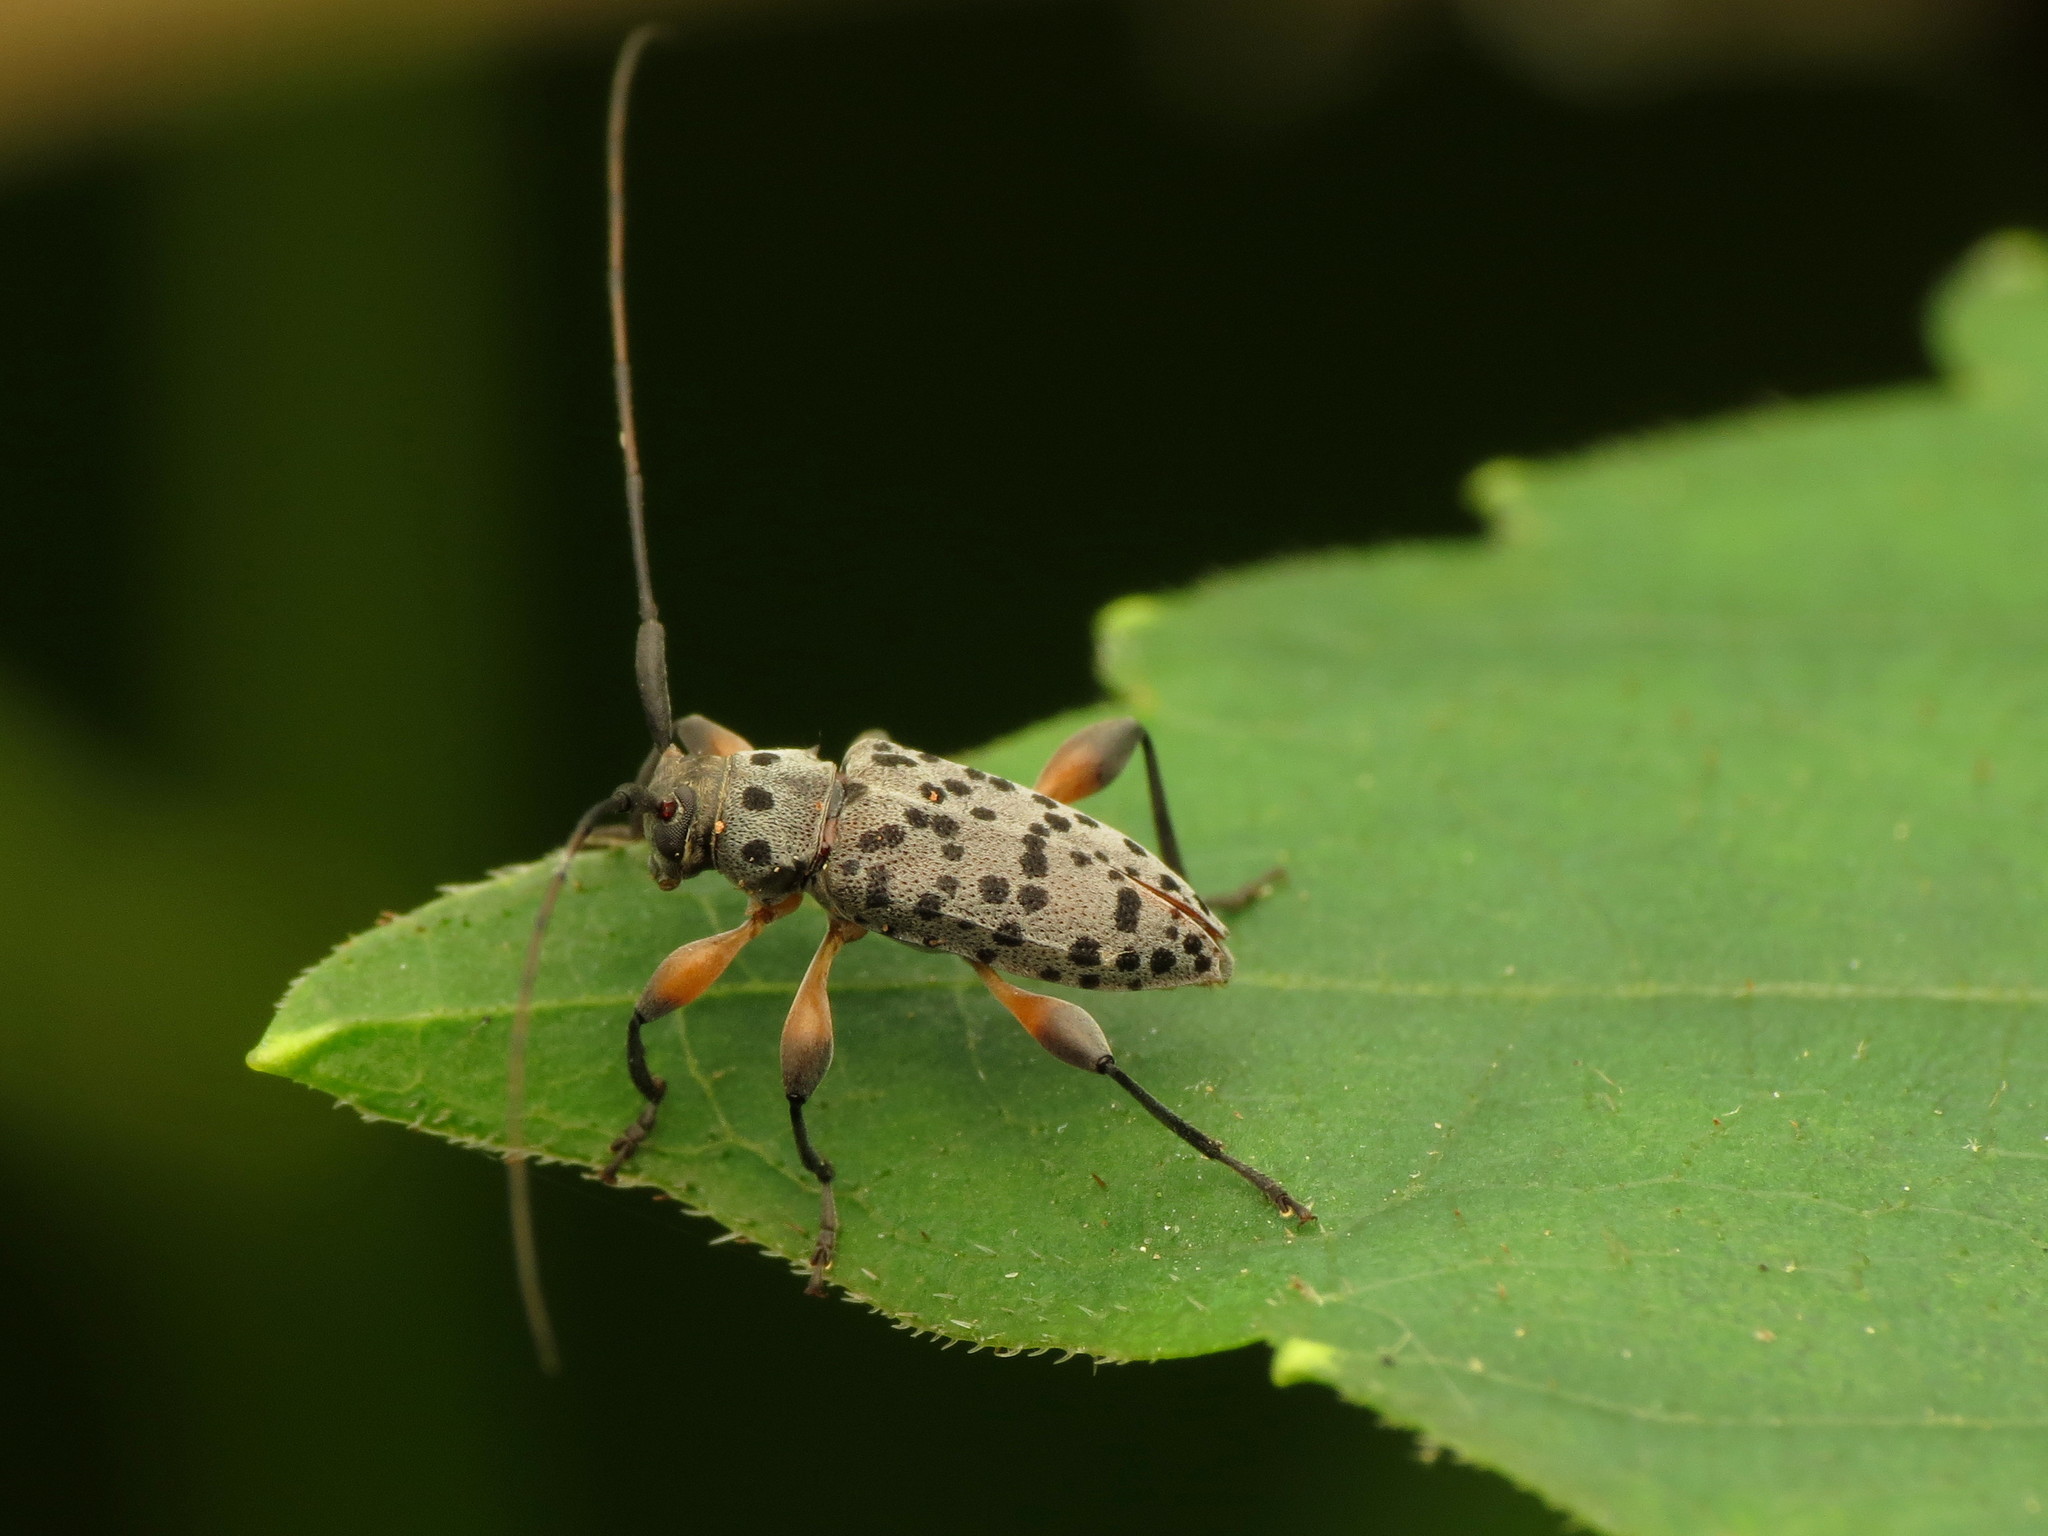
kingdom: Animalia
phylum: Arthropoda
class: Insecta
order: Coleoptera
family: Cerambycidae
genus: Hyperplatys
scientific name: Hyperplatys aspersa
